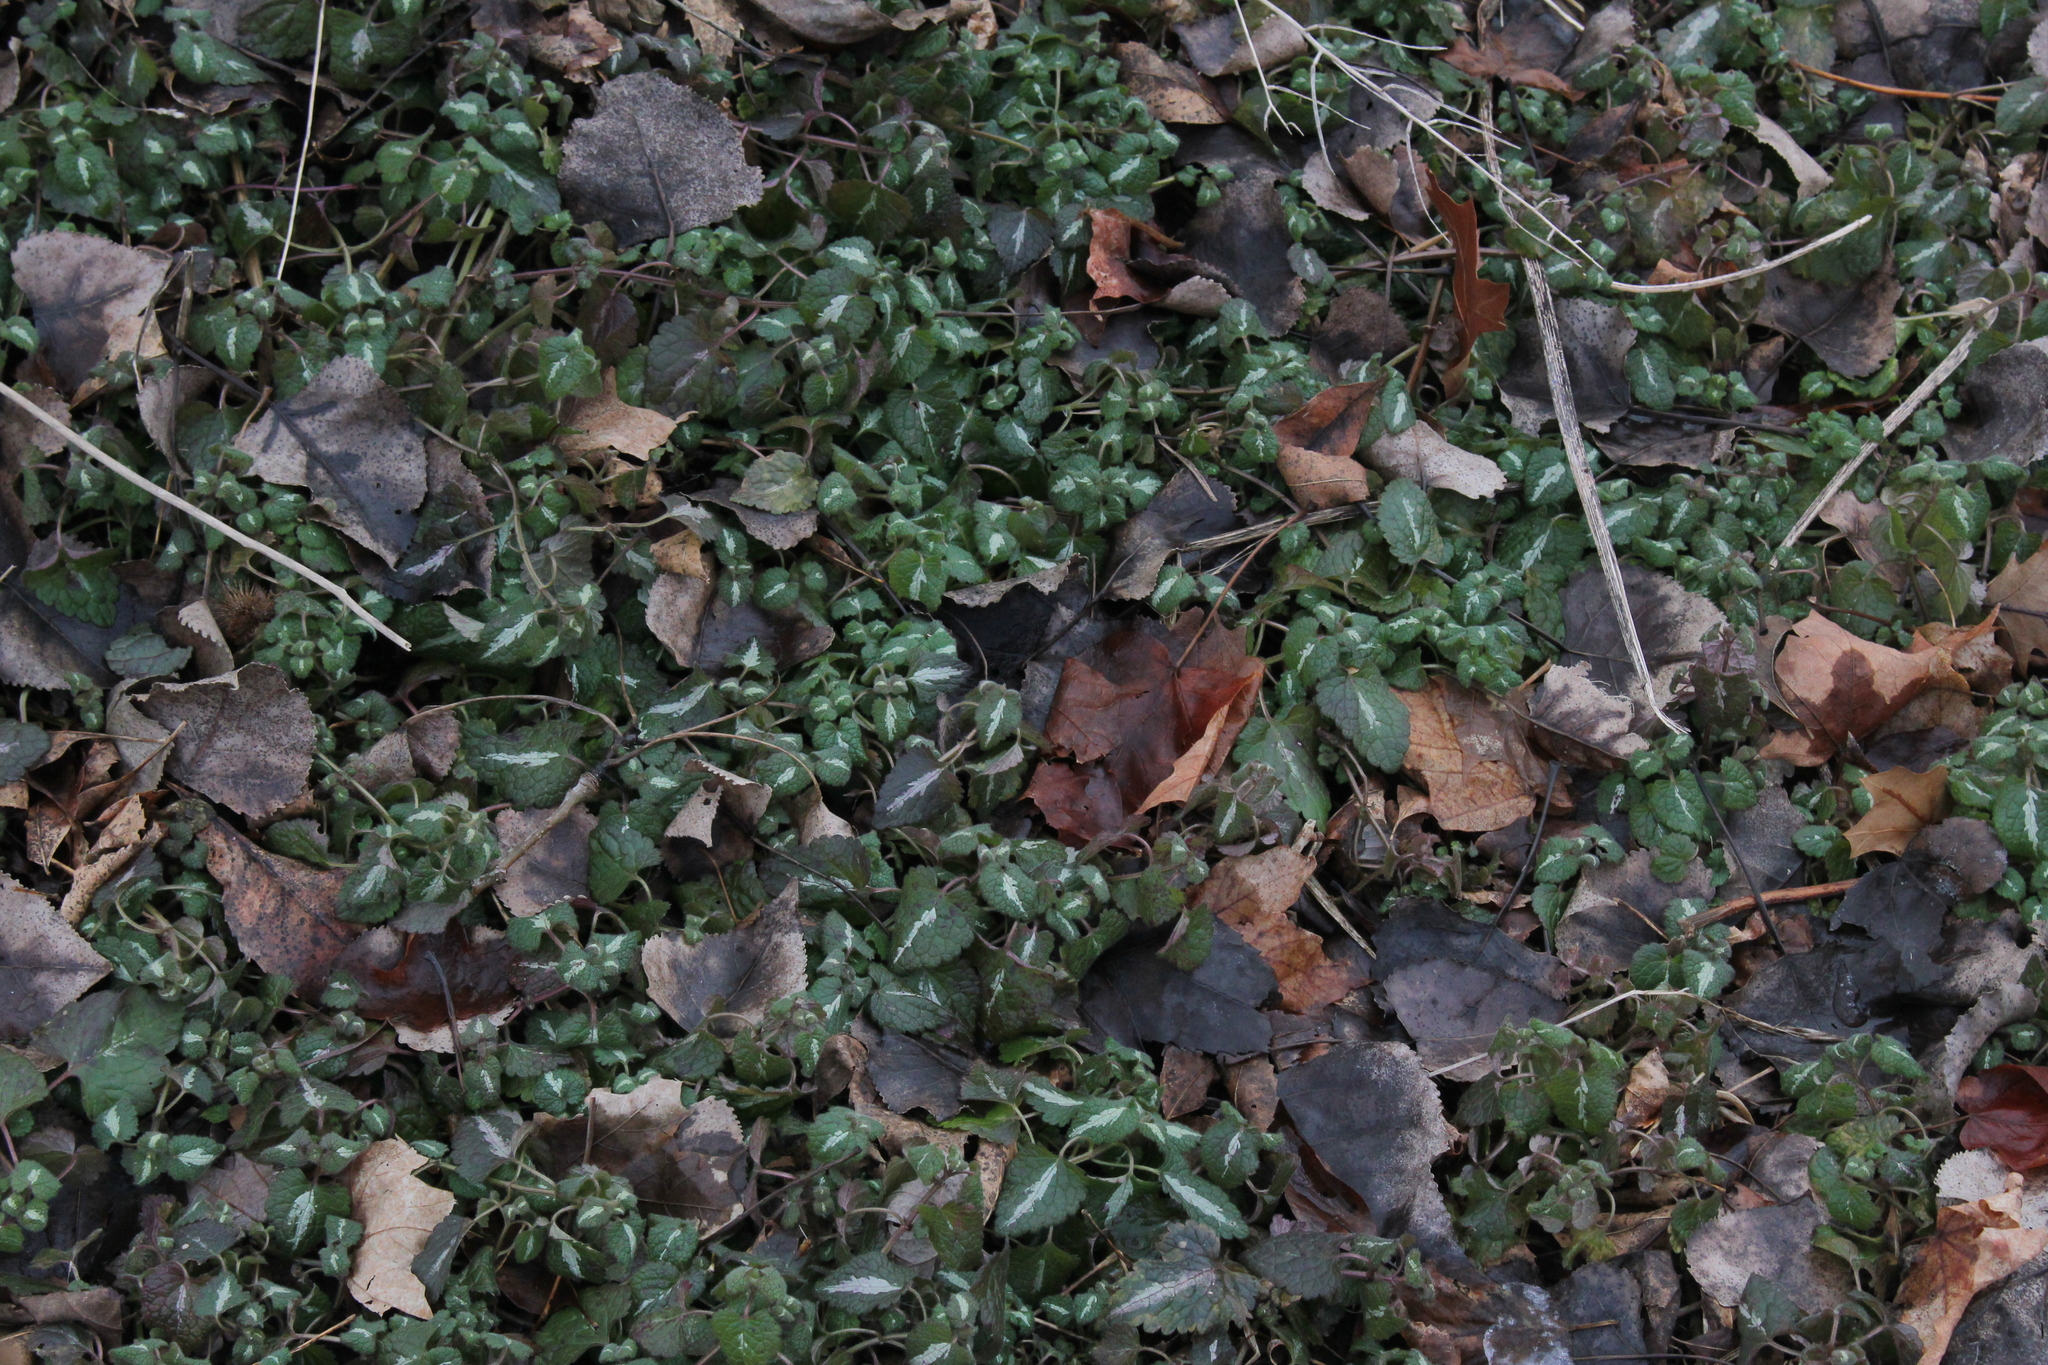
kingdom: Plantae
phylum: Tracheophyta
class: Magnoliopsida
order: Lamiales
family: Lamiaceae
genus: Lamium
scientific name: Lamium maculatum
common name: Spotted dead-nettle
